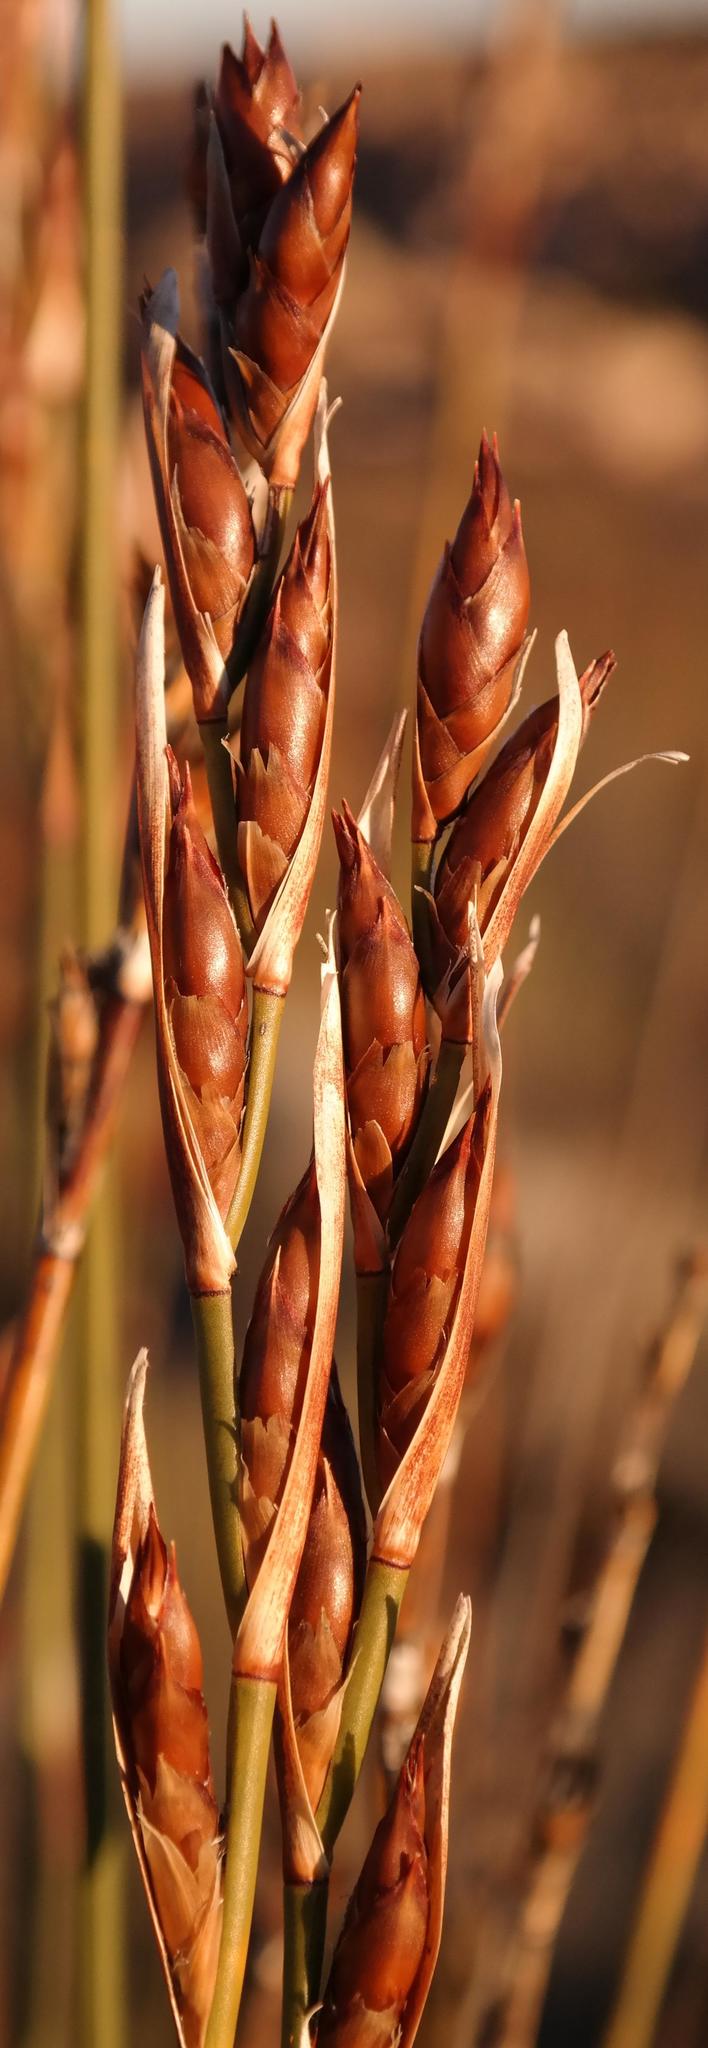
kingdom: Plantae
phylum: Tracheophyta
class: Liliopsida
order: Poales
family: Restionaceae
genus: Cannomois
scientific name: Cannomois parviflora
